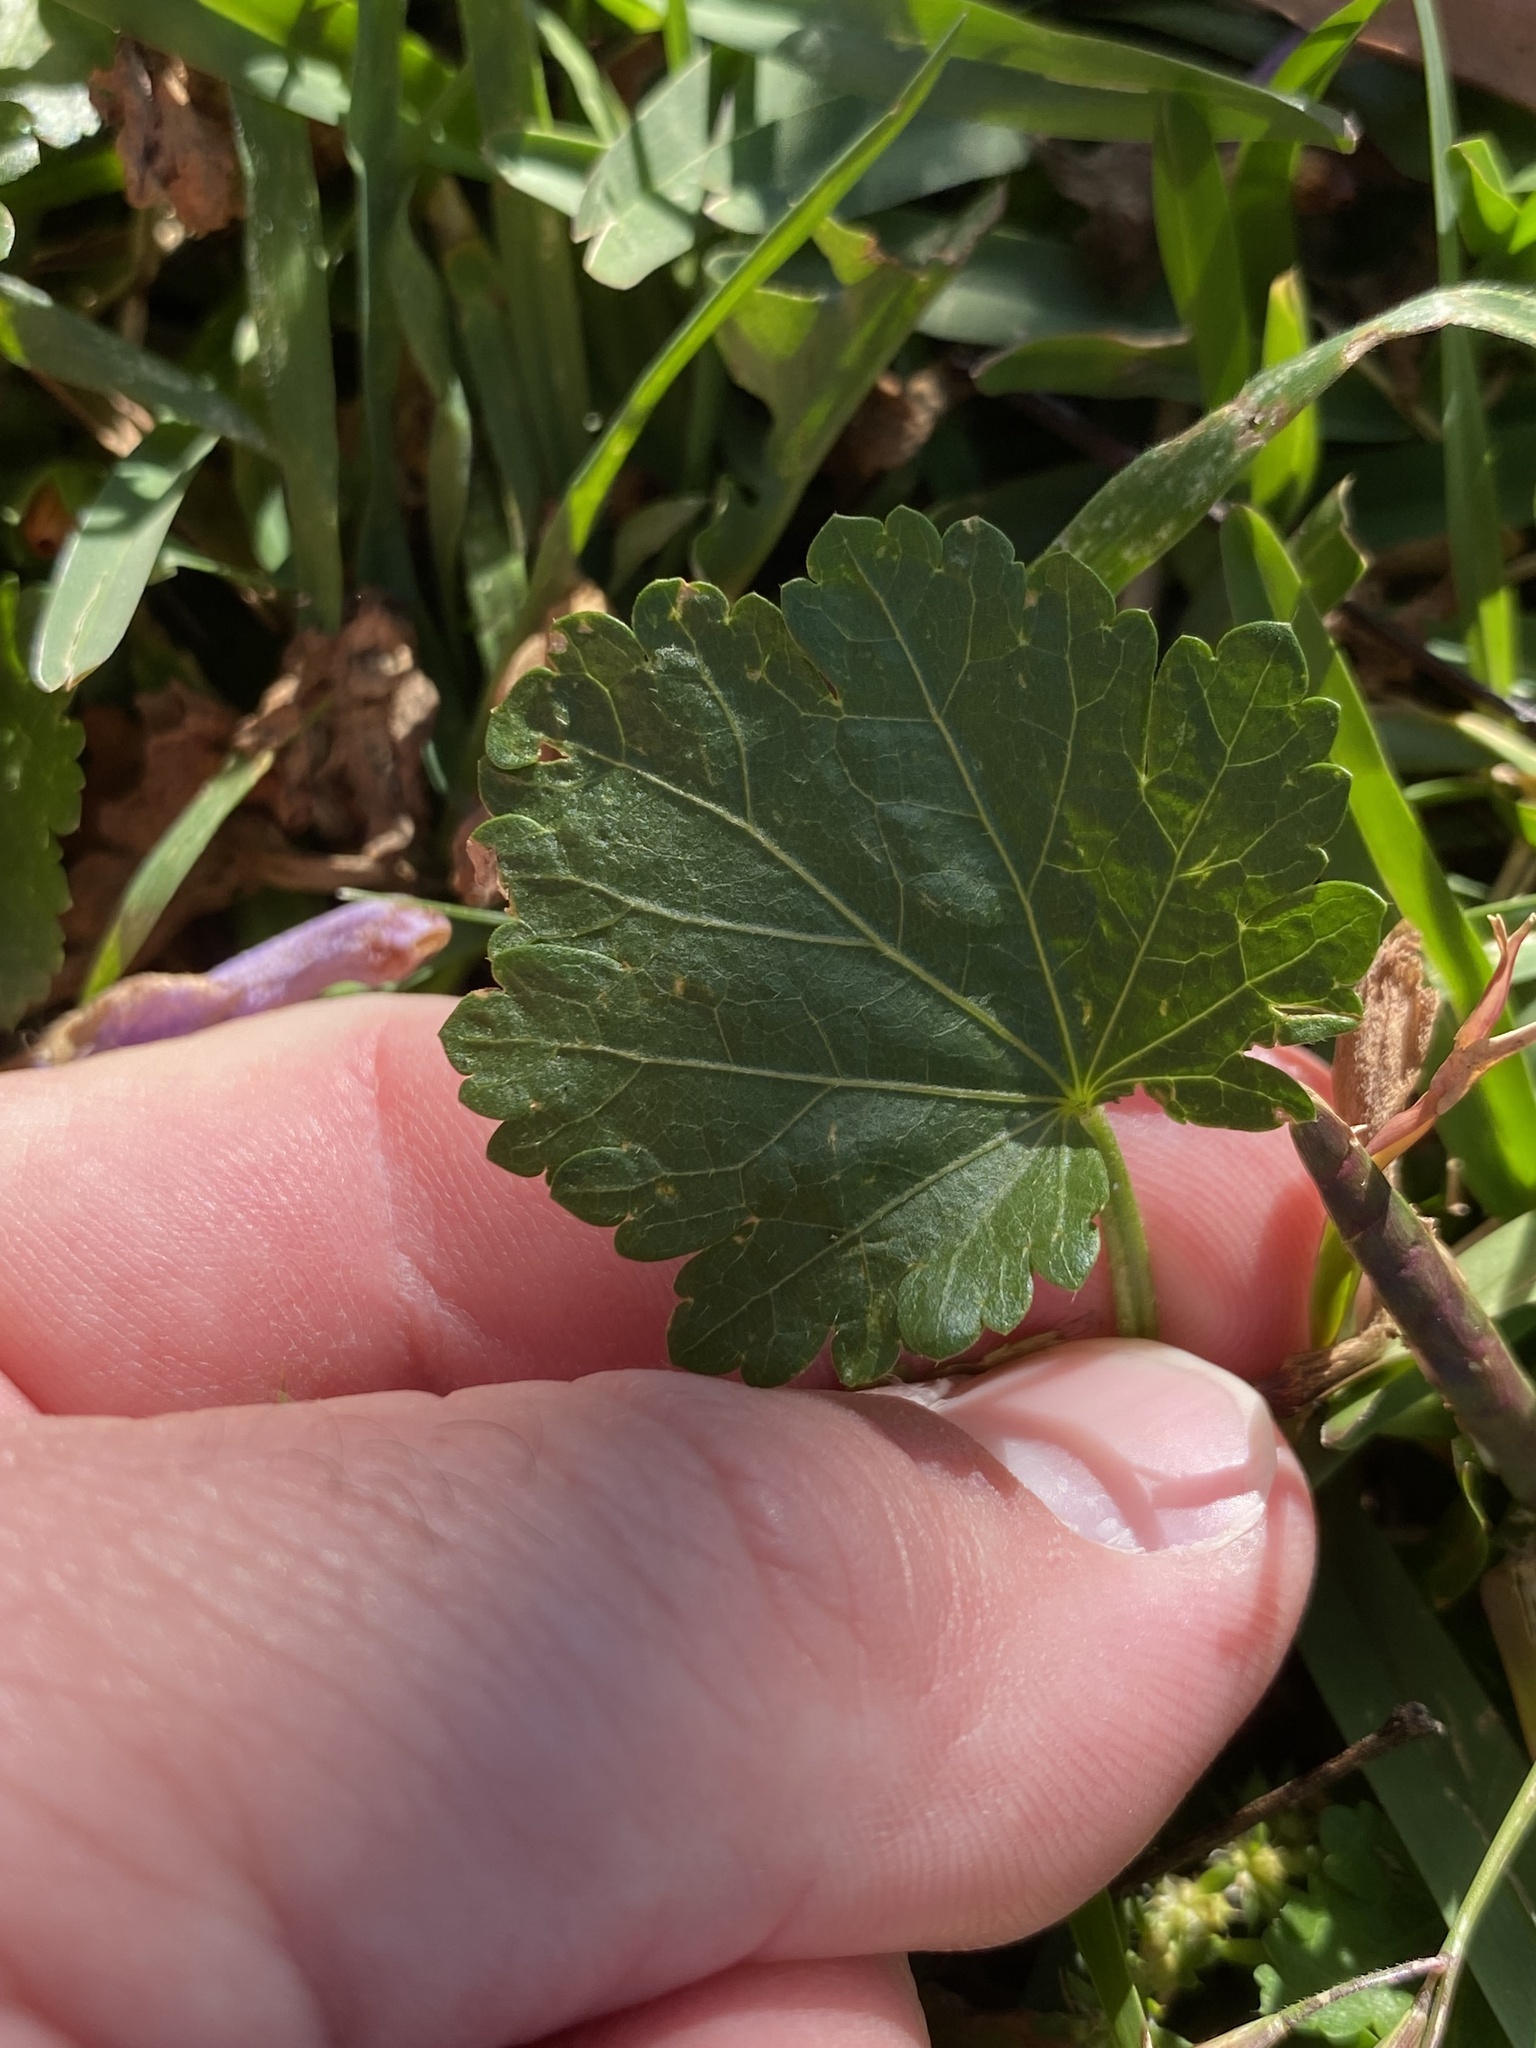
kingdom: Plantae
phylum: Tracheophyta
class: Magnoliopsida
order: Malvales
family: Malvaceae
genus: Modiola
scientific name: Modiola caroliniana
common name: Carolina bristlemallow
